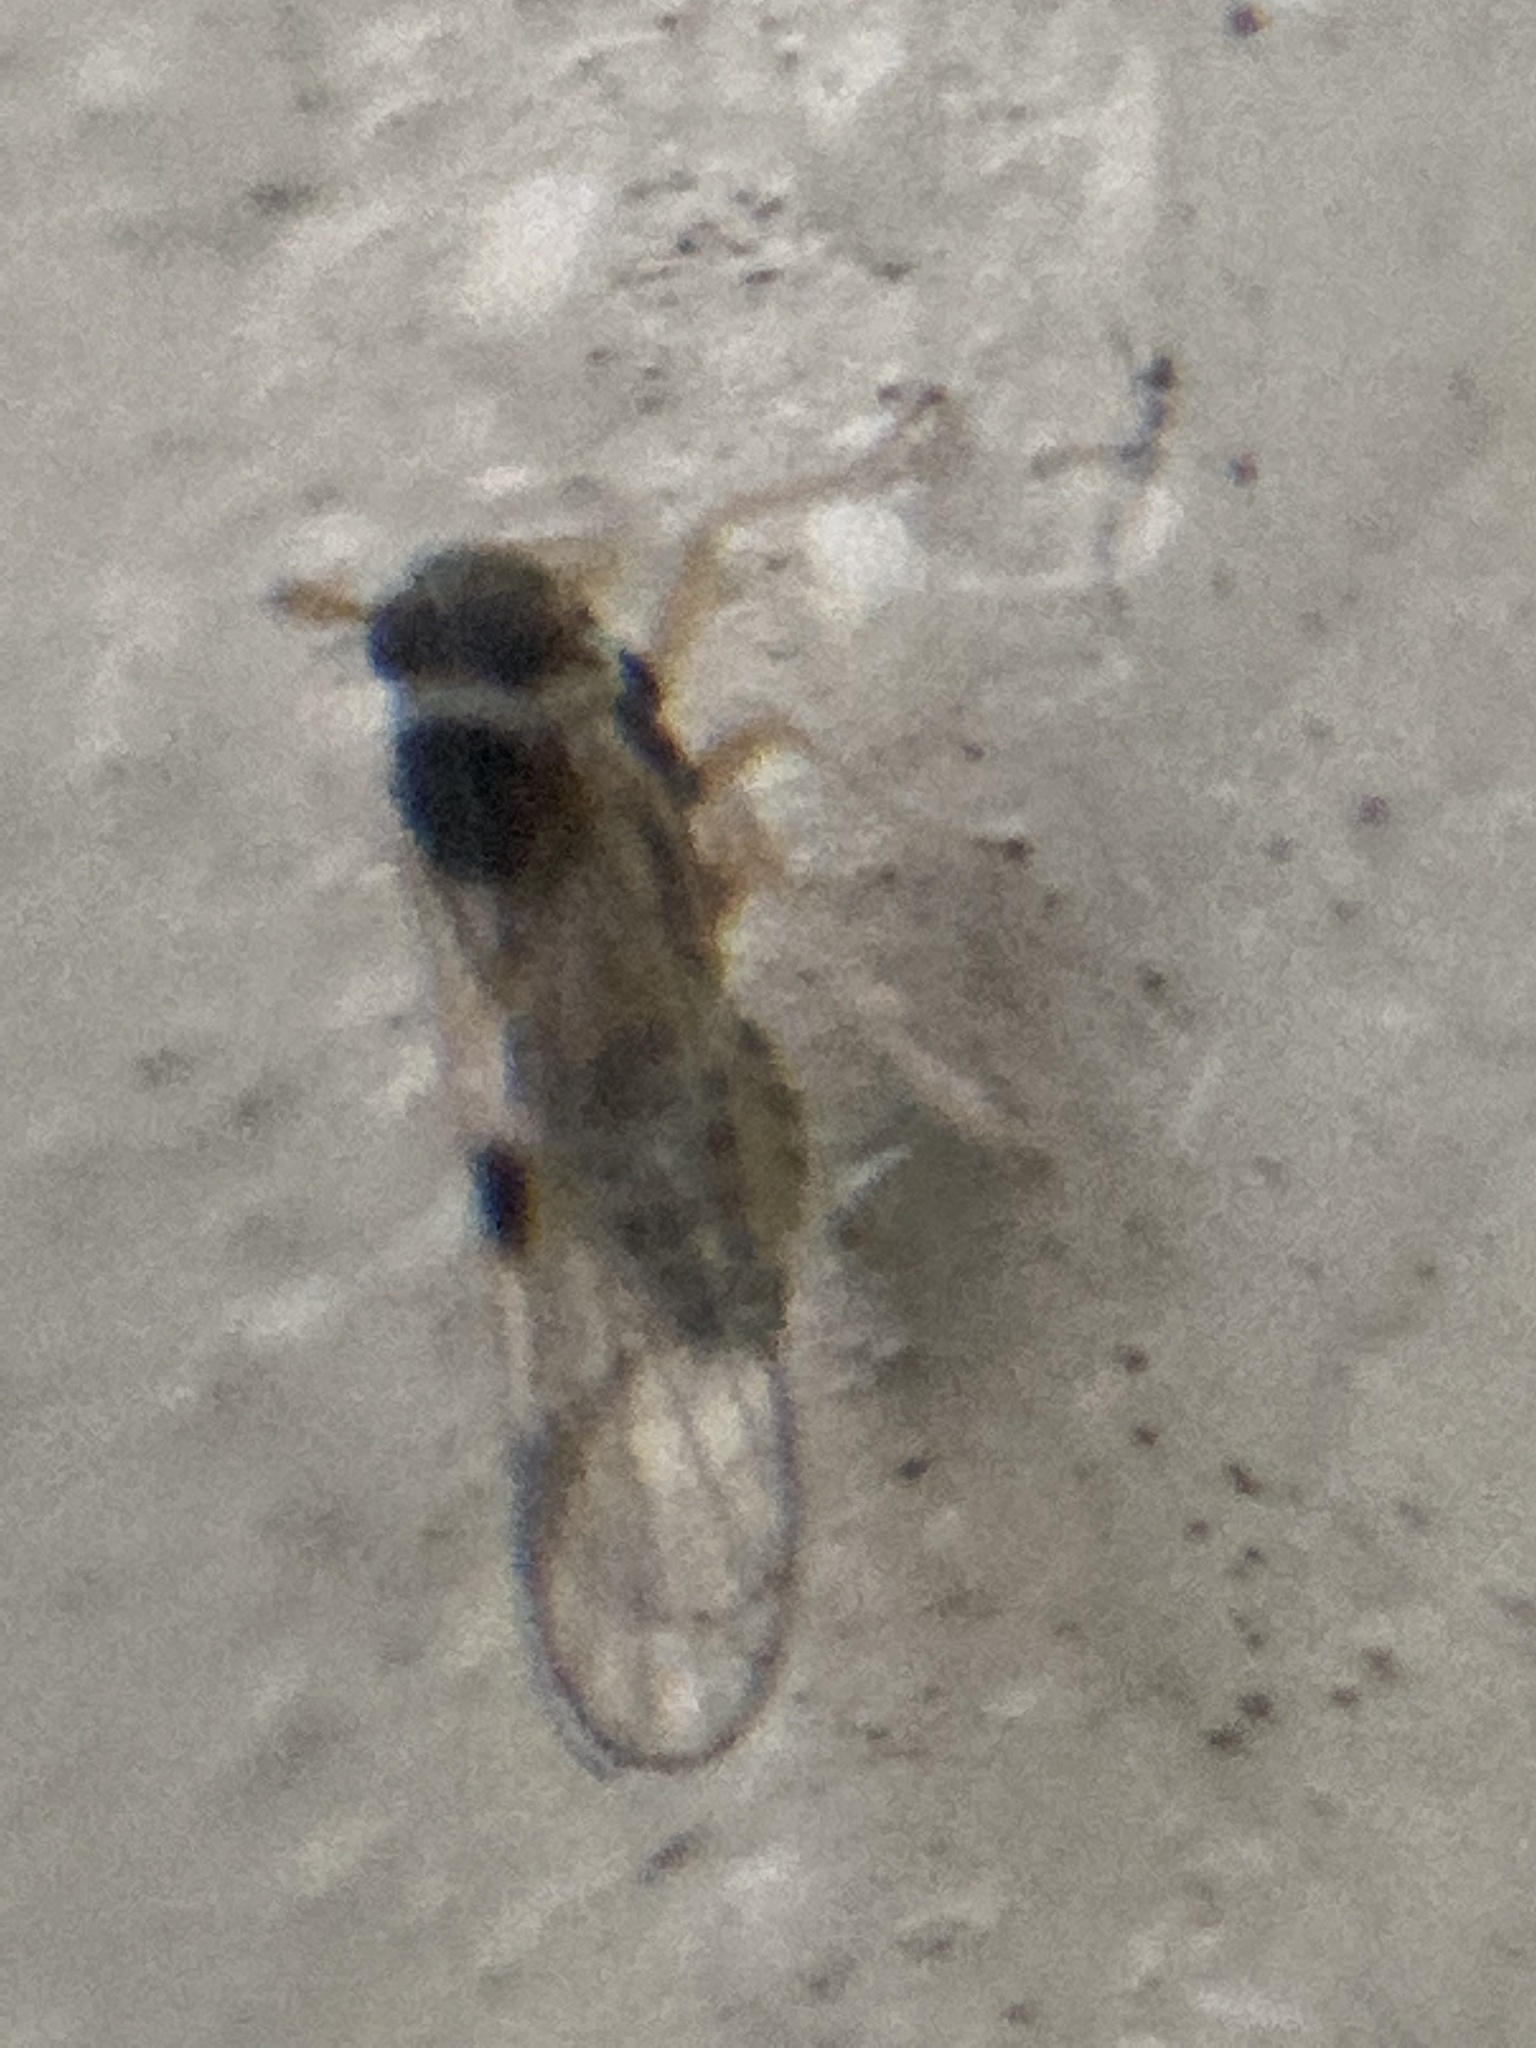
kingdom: Animalia
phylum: Arthropoda
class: Insecta
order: Hemiptera
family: Delphacidae
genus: Chionomus
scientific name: Chionomus
